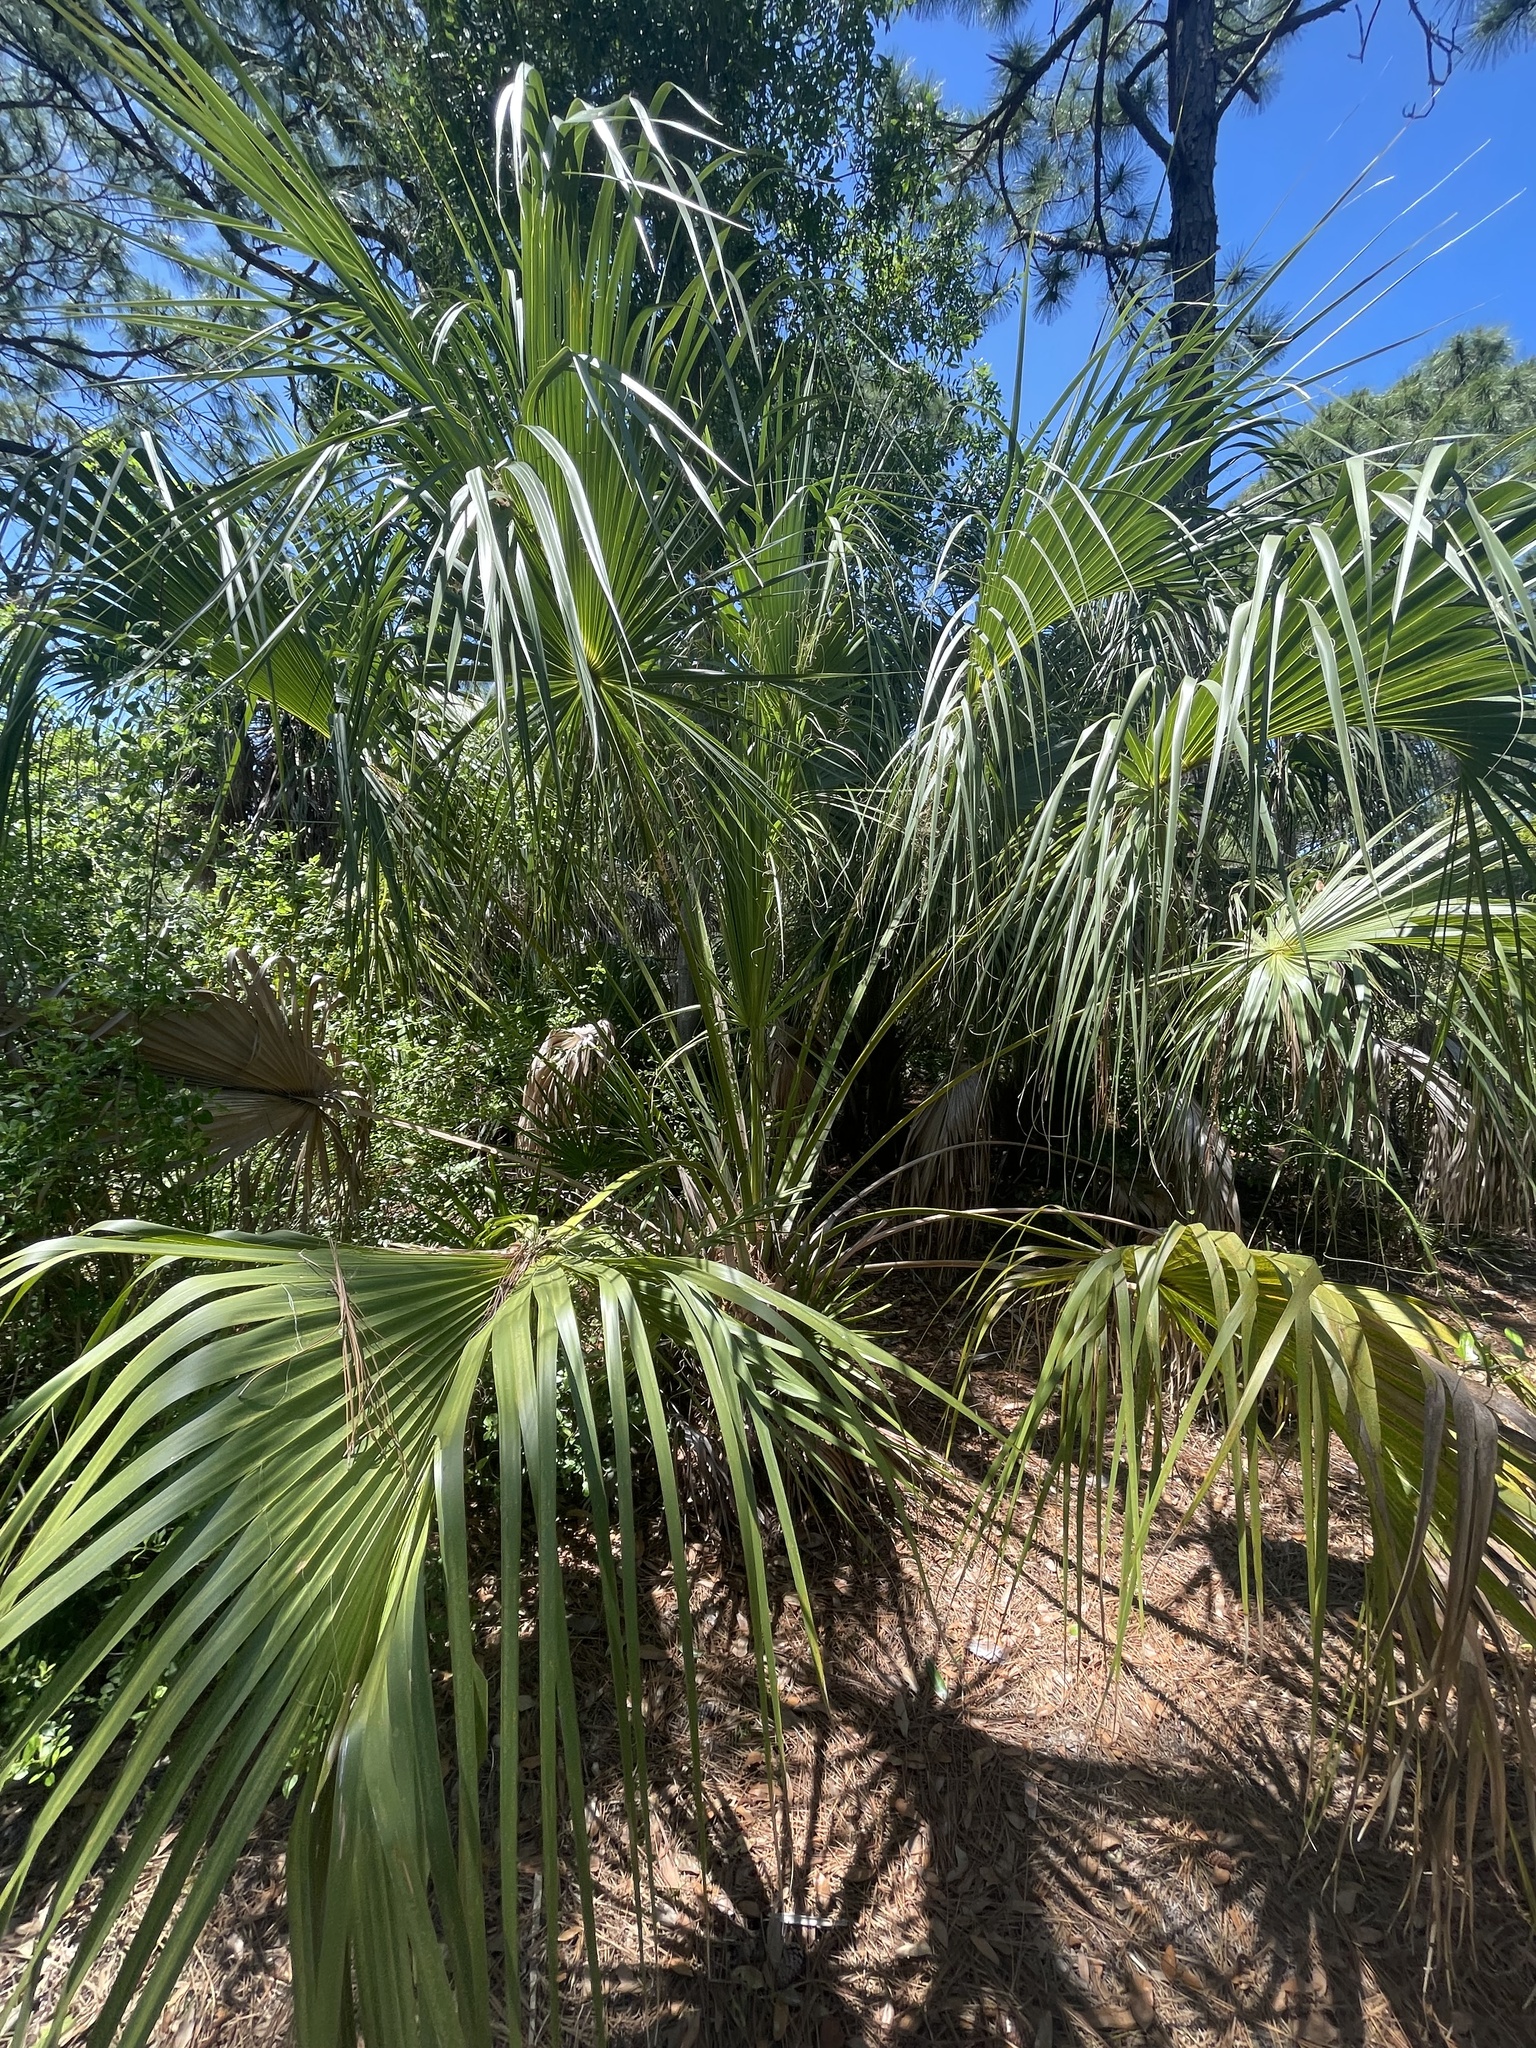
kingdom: Plantae
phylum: Tracheophyta
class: Liliopsida
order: Arecales
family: Arecaceae
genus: Sabal
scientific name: Sabal palmetto
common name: Blue palmetto
